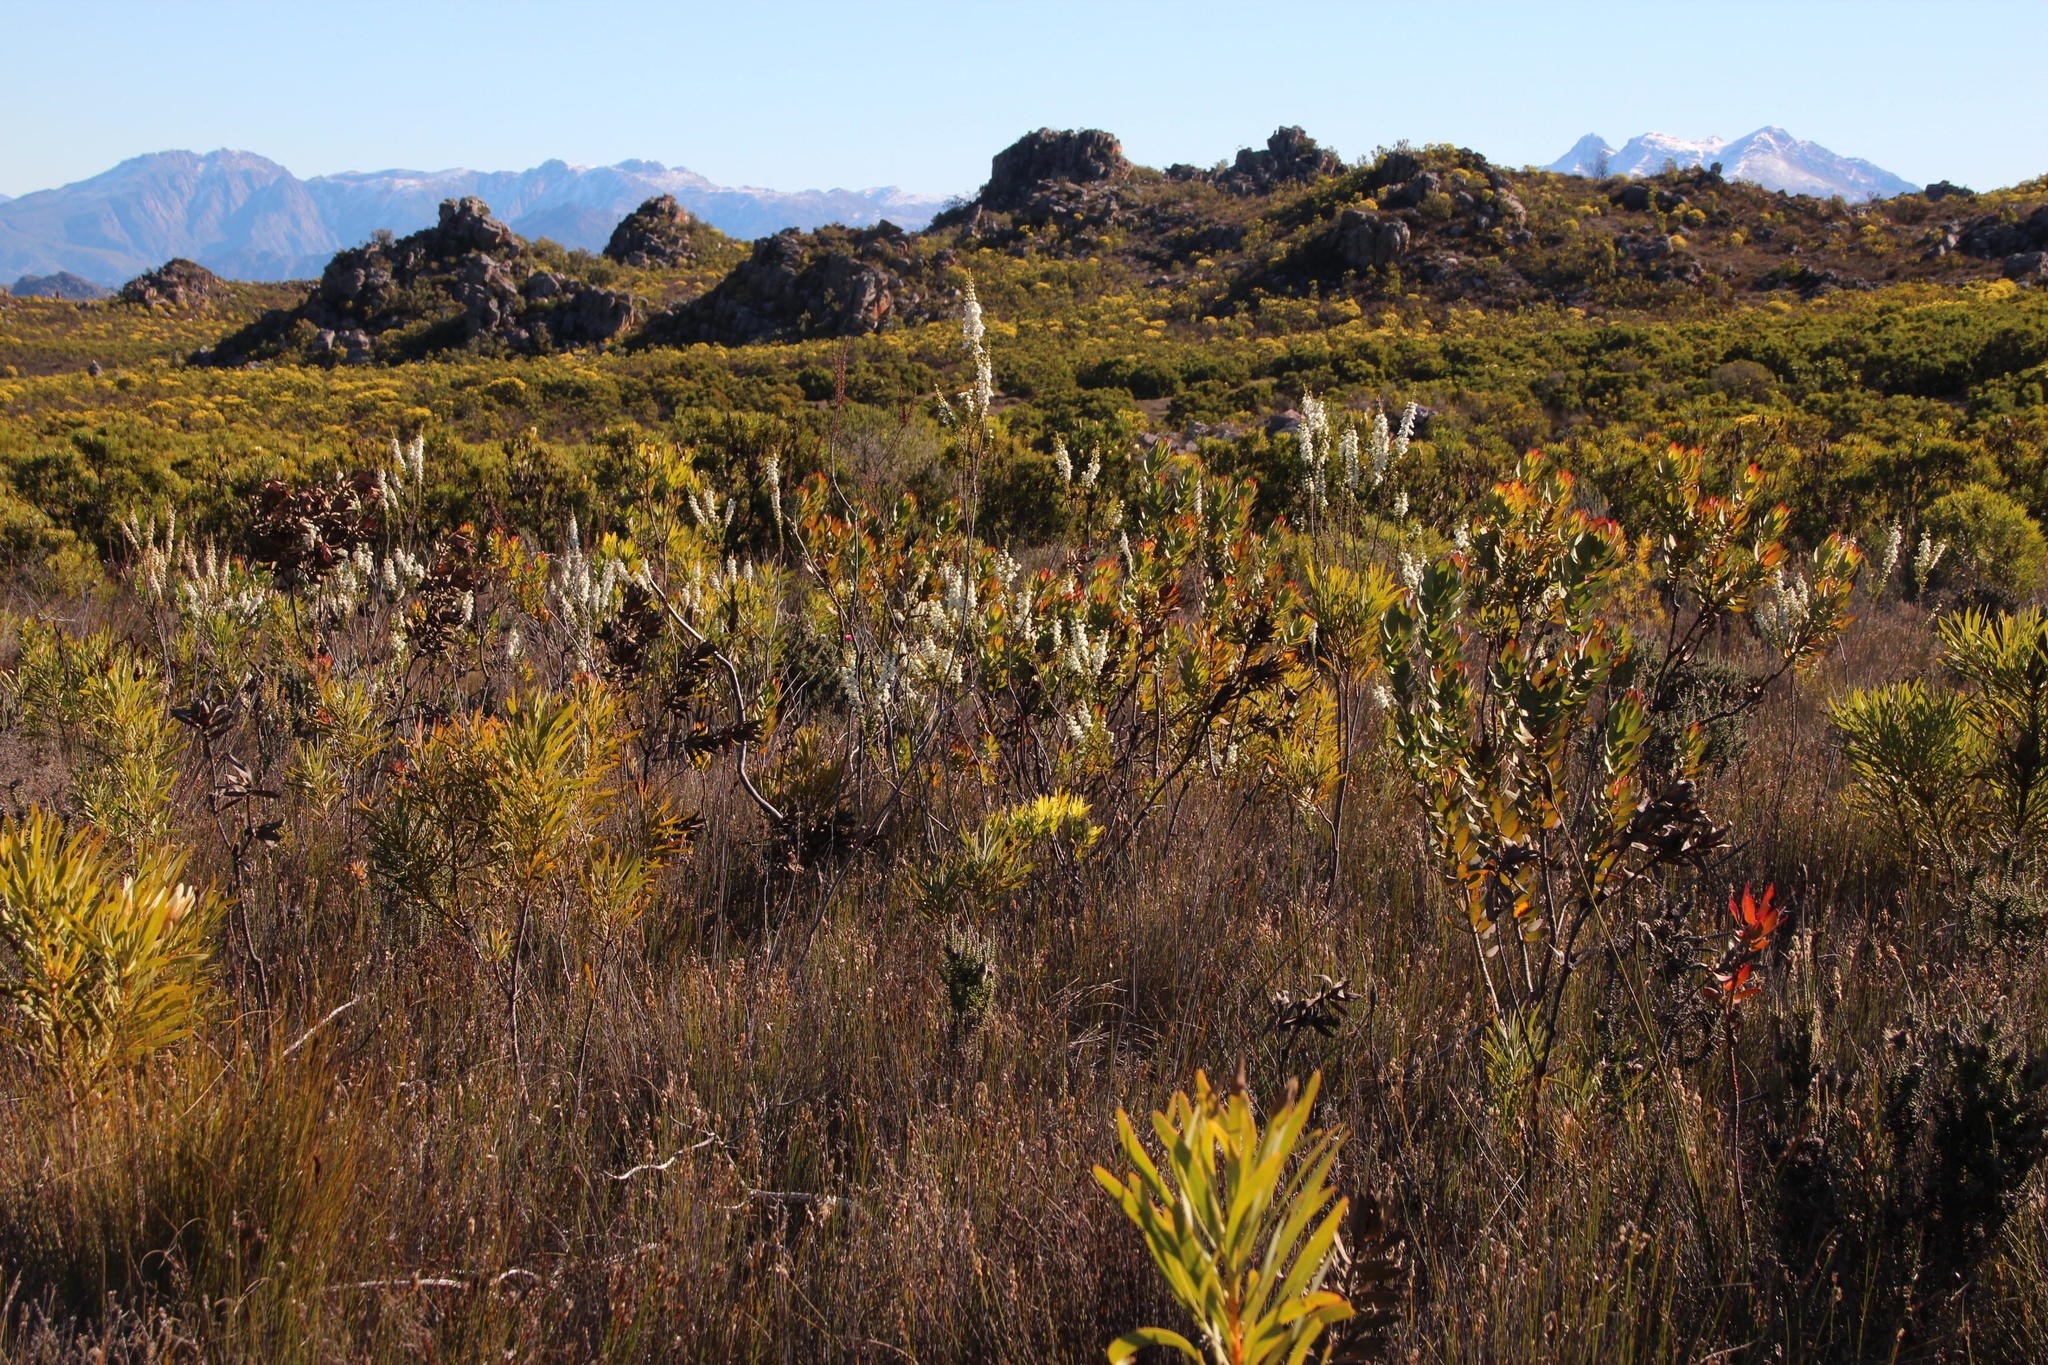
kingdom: Plantae
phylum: Tracheophyta
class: Magnoliopsida
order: Ericales
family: Ericaceae
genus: Erica
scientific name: Erica monsoniana
